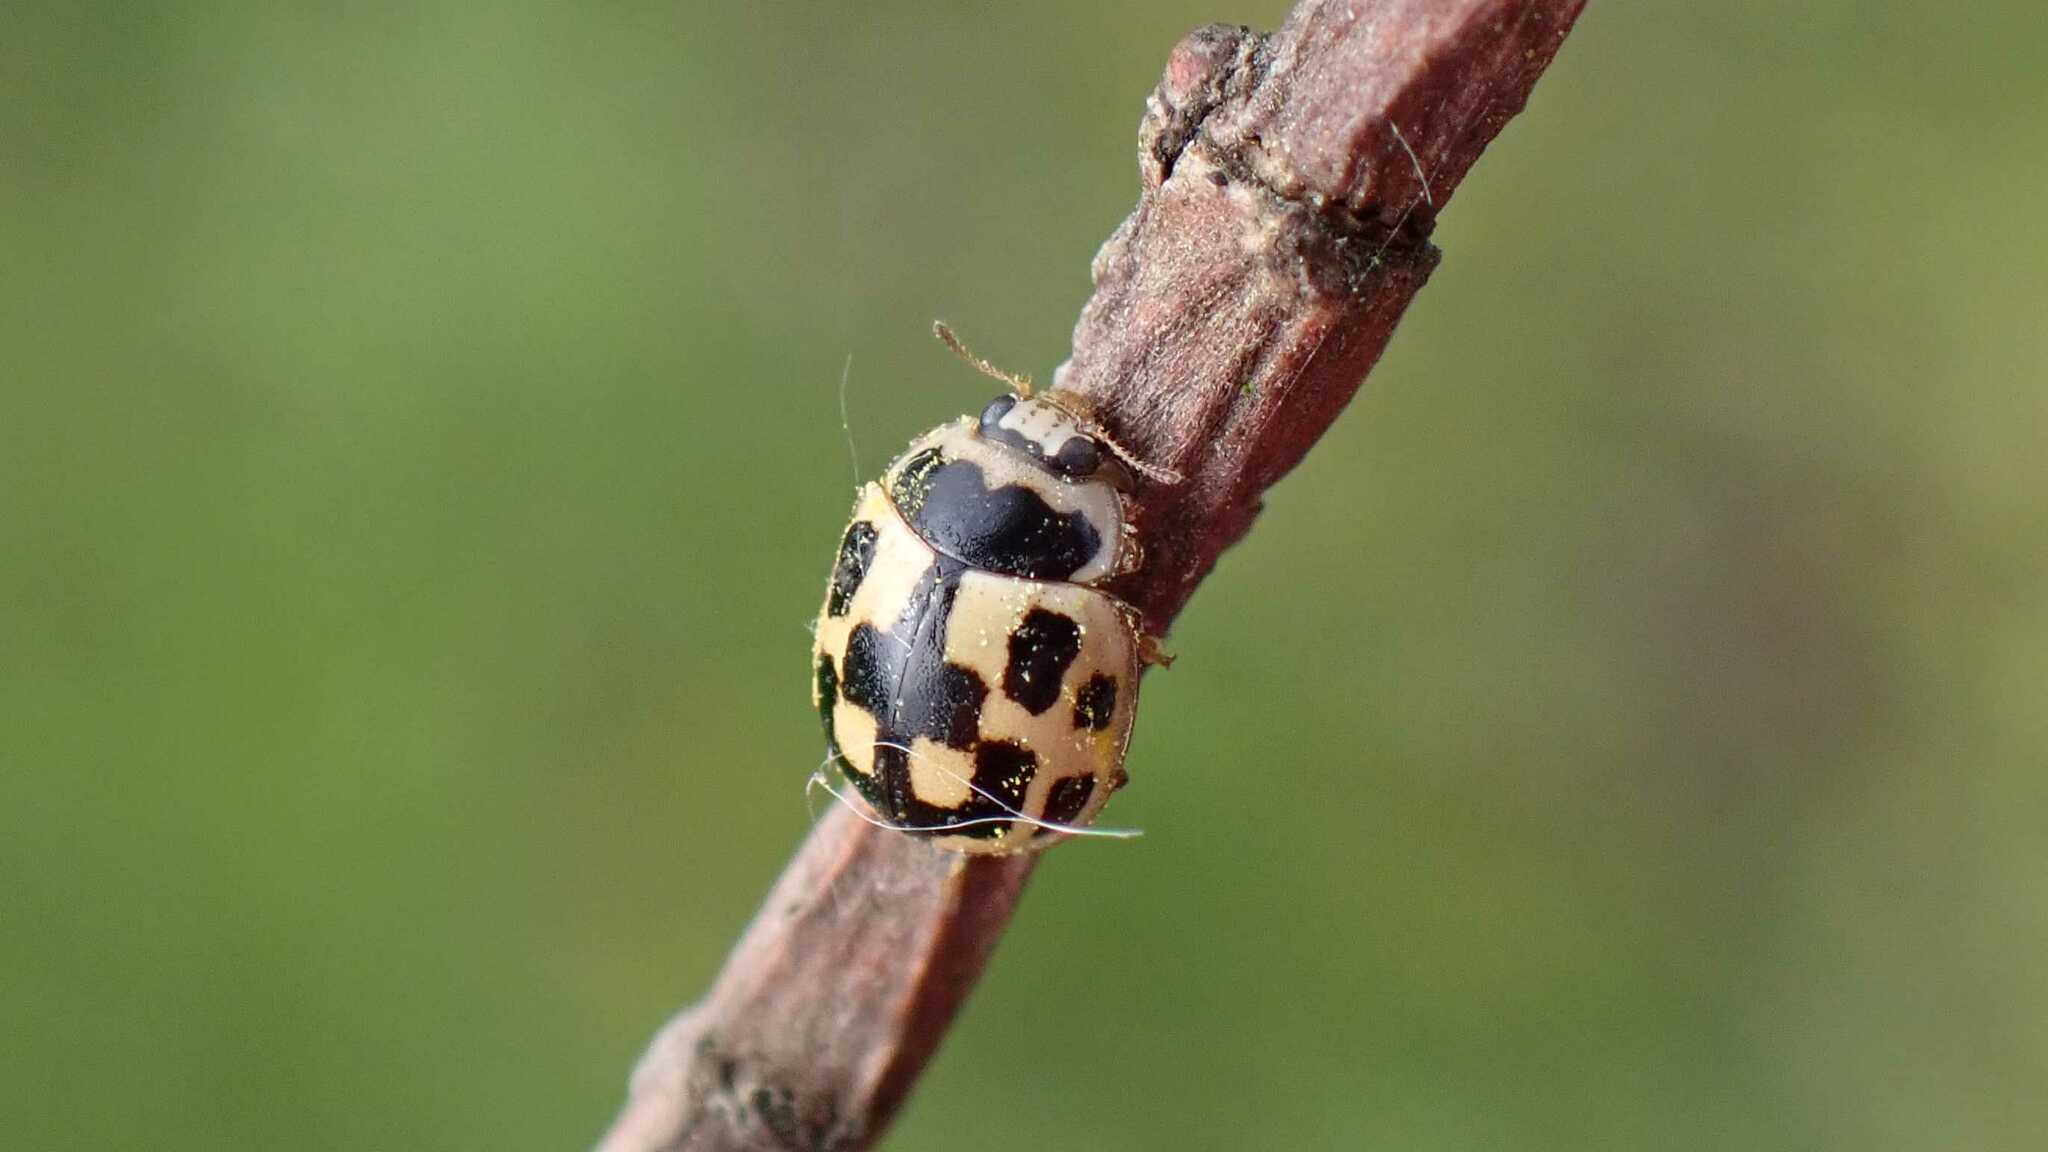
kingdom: Animalia
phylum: Arthropoda
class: Insecta
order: Coleoptera
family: Coccinellidae
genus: Propylaea
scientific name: Propylaea quatuordecimpunctata
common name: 14-spotted ladybird beetle
